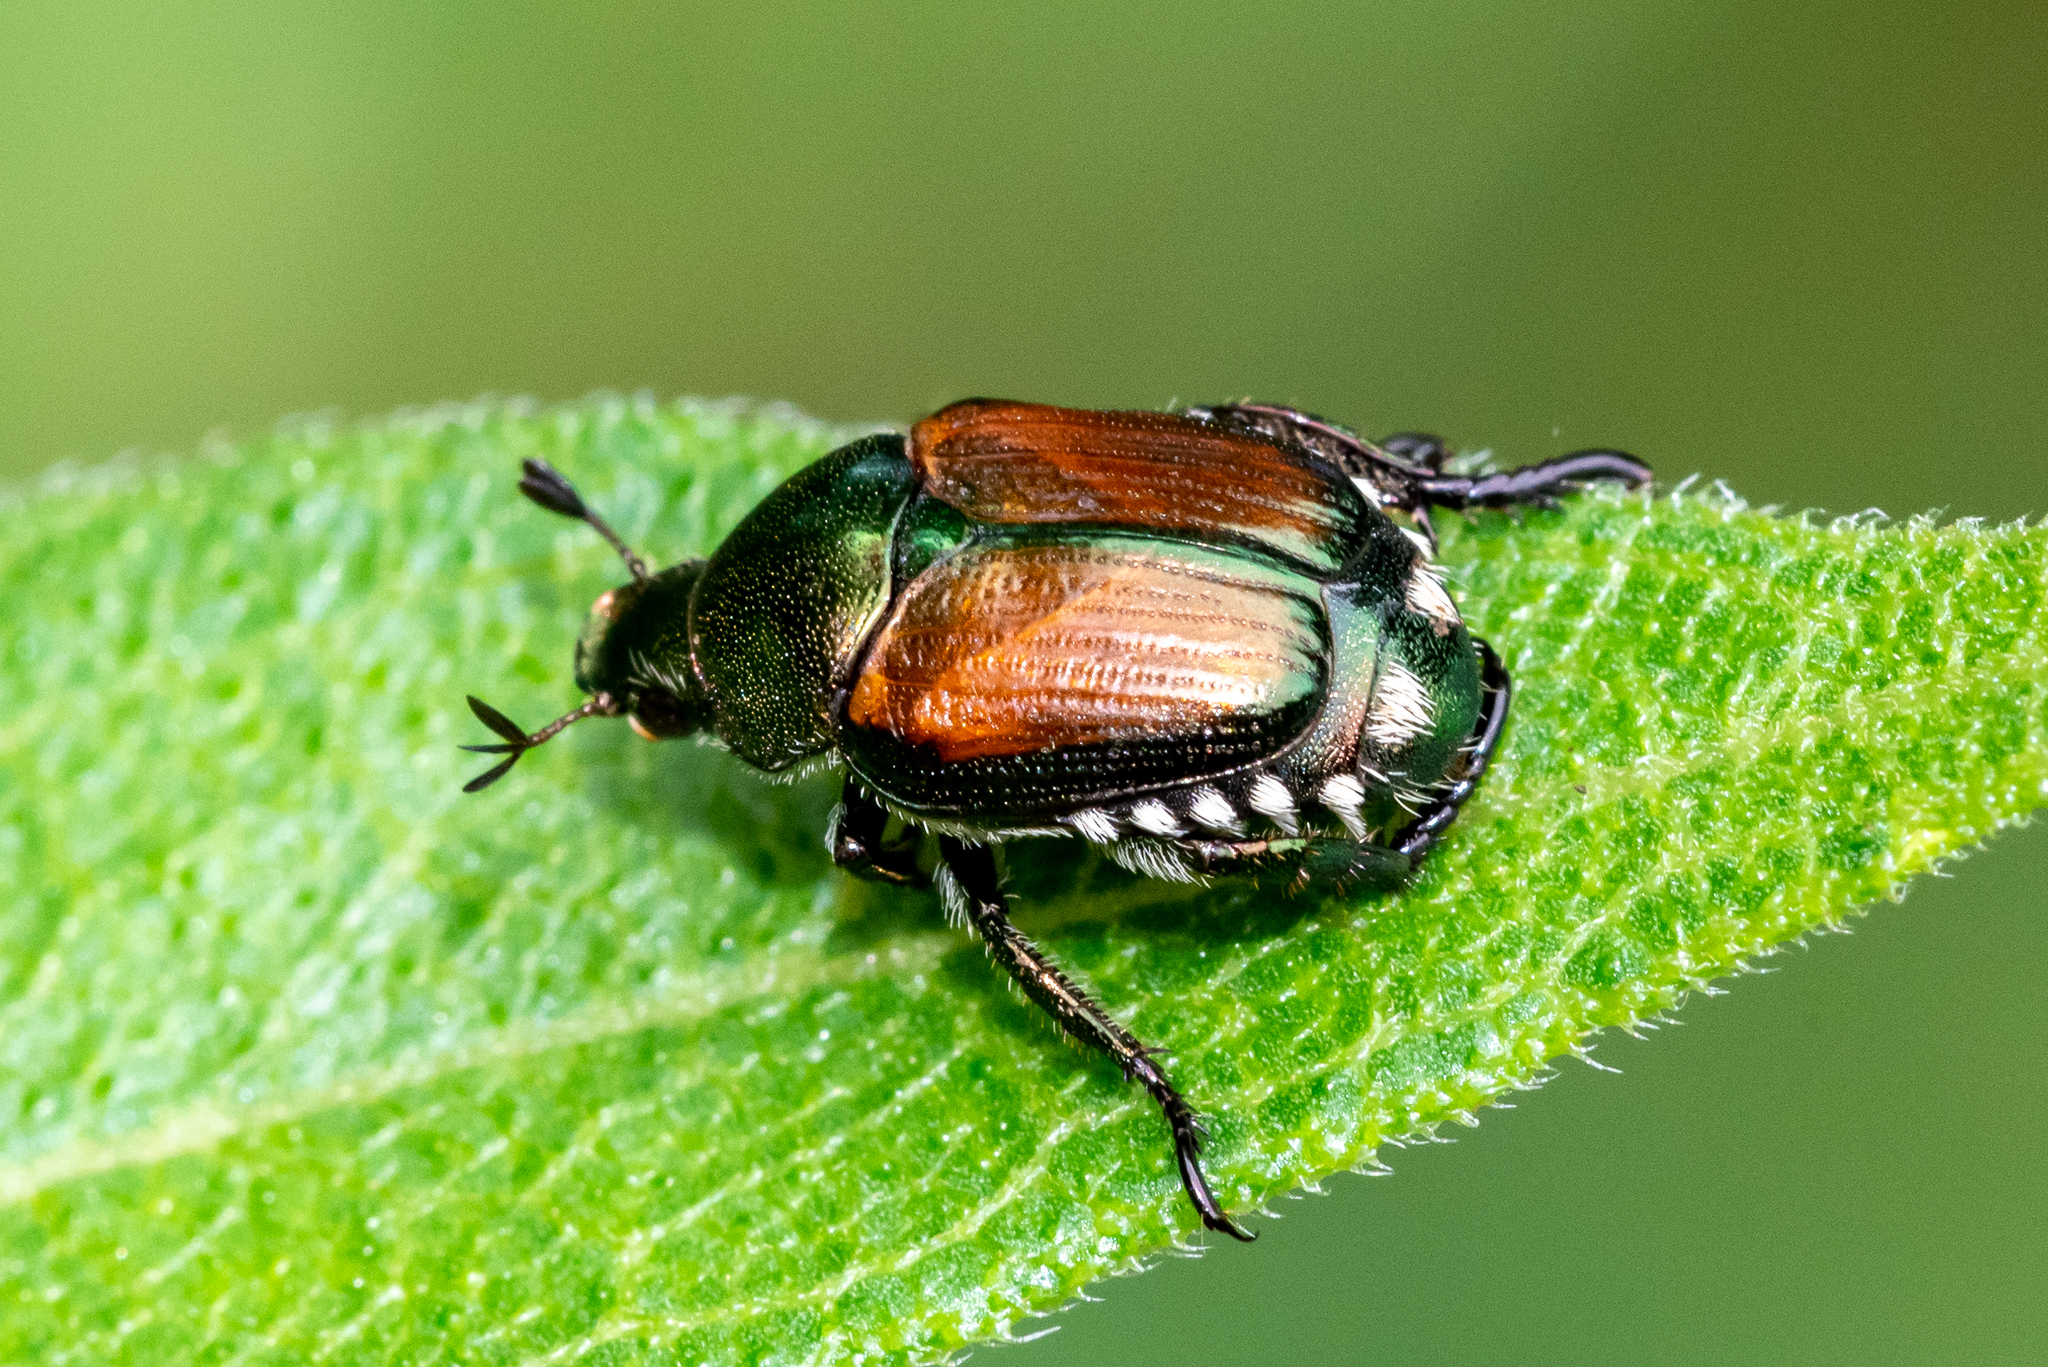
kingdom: Animalia
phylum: Arthropoda
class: Insecta
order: Coleoptera
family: Scarabaeidae
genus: Popillia
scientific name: Popillia japonica
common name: Japanese beetle
